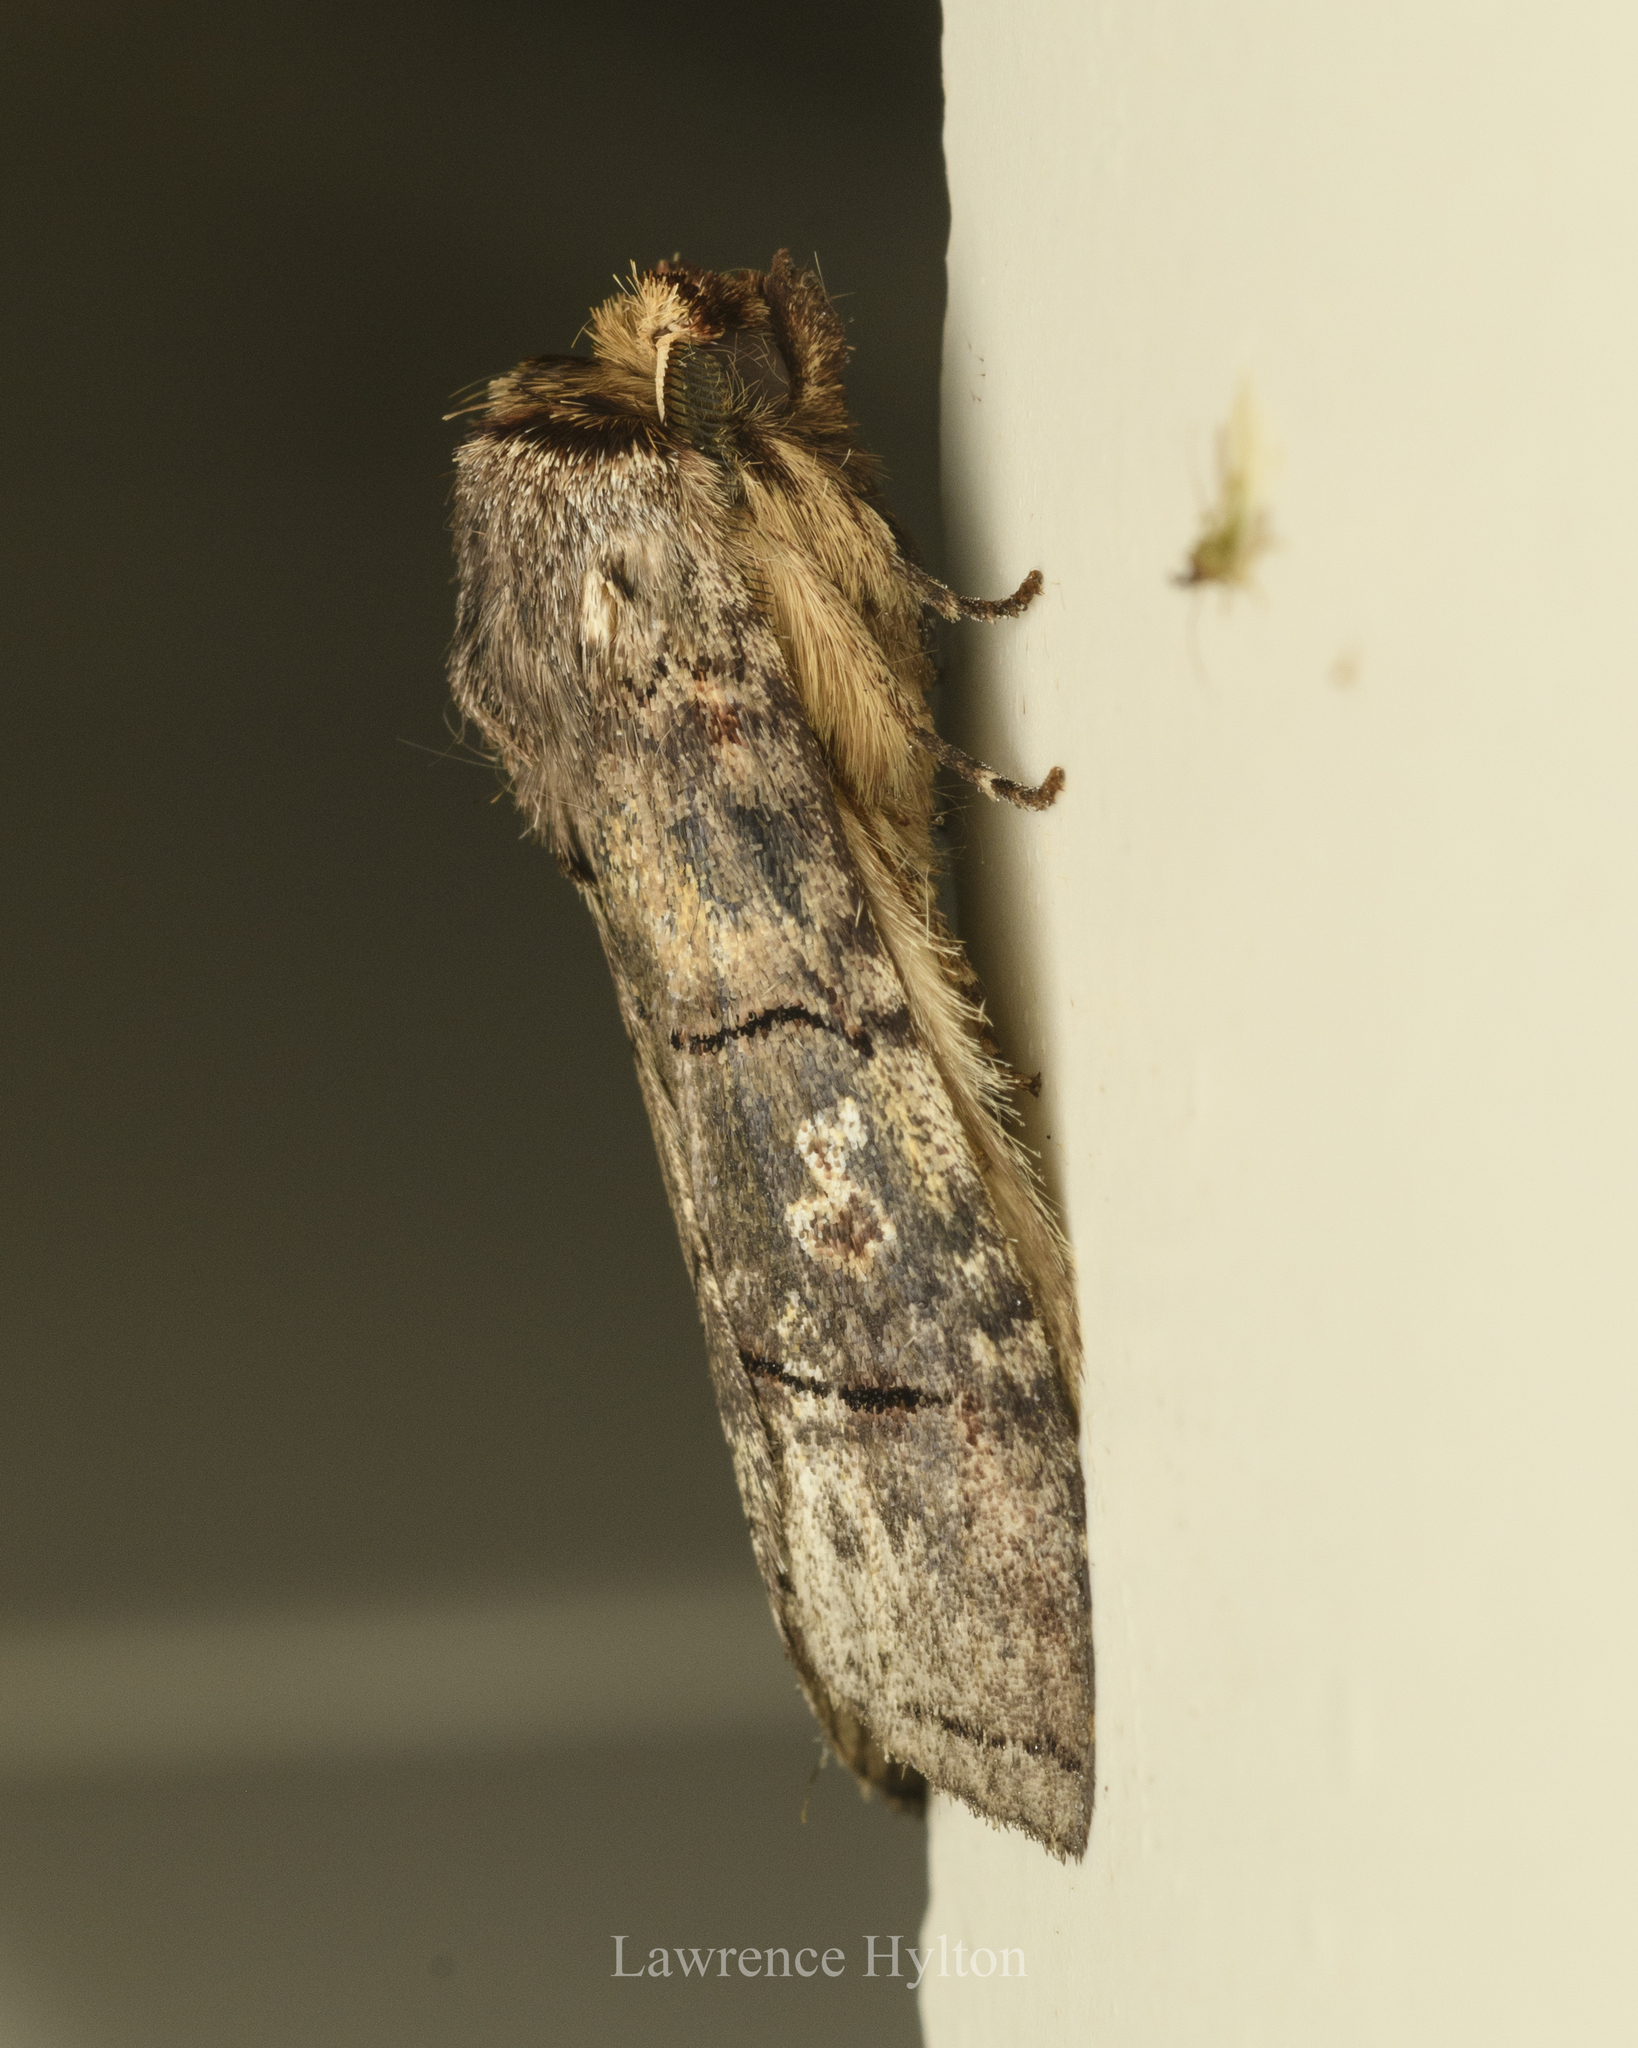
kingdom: Animalia
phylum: Arthropoda
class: Insecta
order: Lepidoptera
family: Notodontidae
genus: Antiphalera
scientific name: Antiphalera exquisitor
